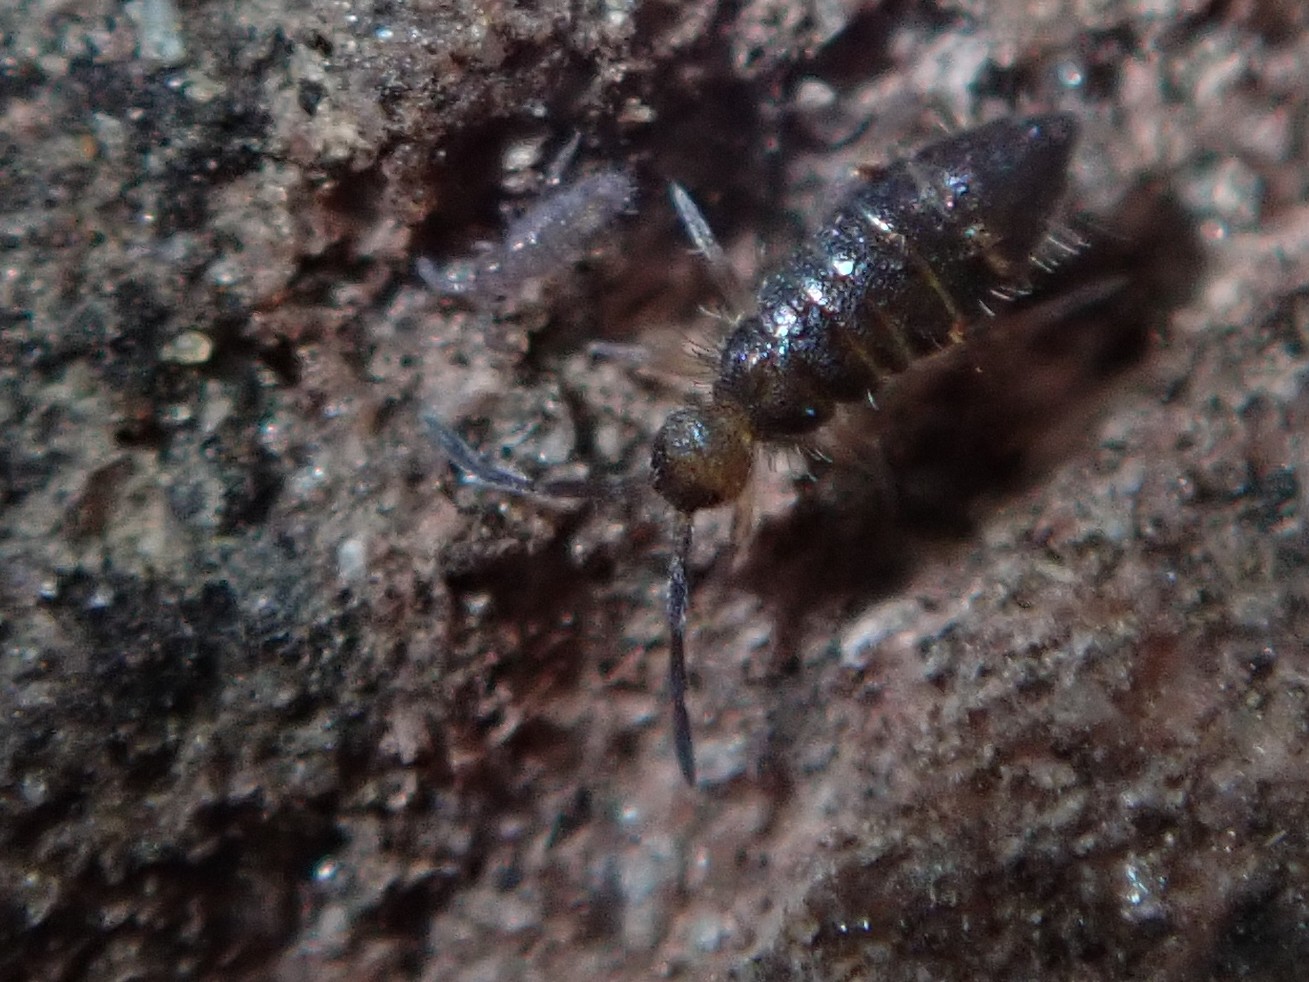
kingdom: Animalia
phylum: Arthropoda
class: Collembola
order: Entomobryomorpha
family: Entomobryidae
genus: Willowsia
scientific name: Willowsia buski
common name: Damp grain springtail
